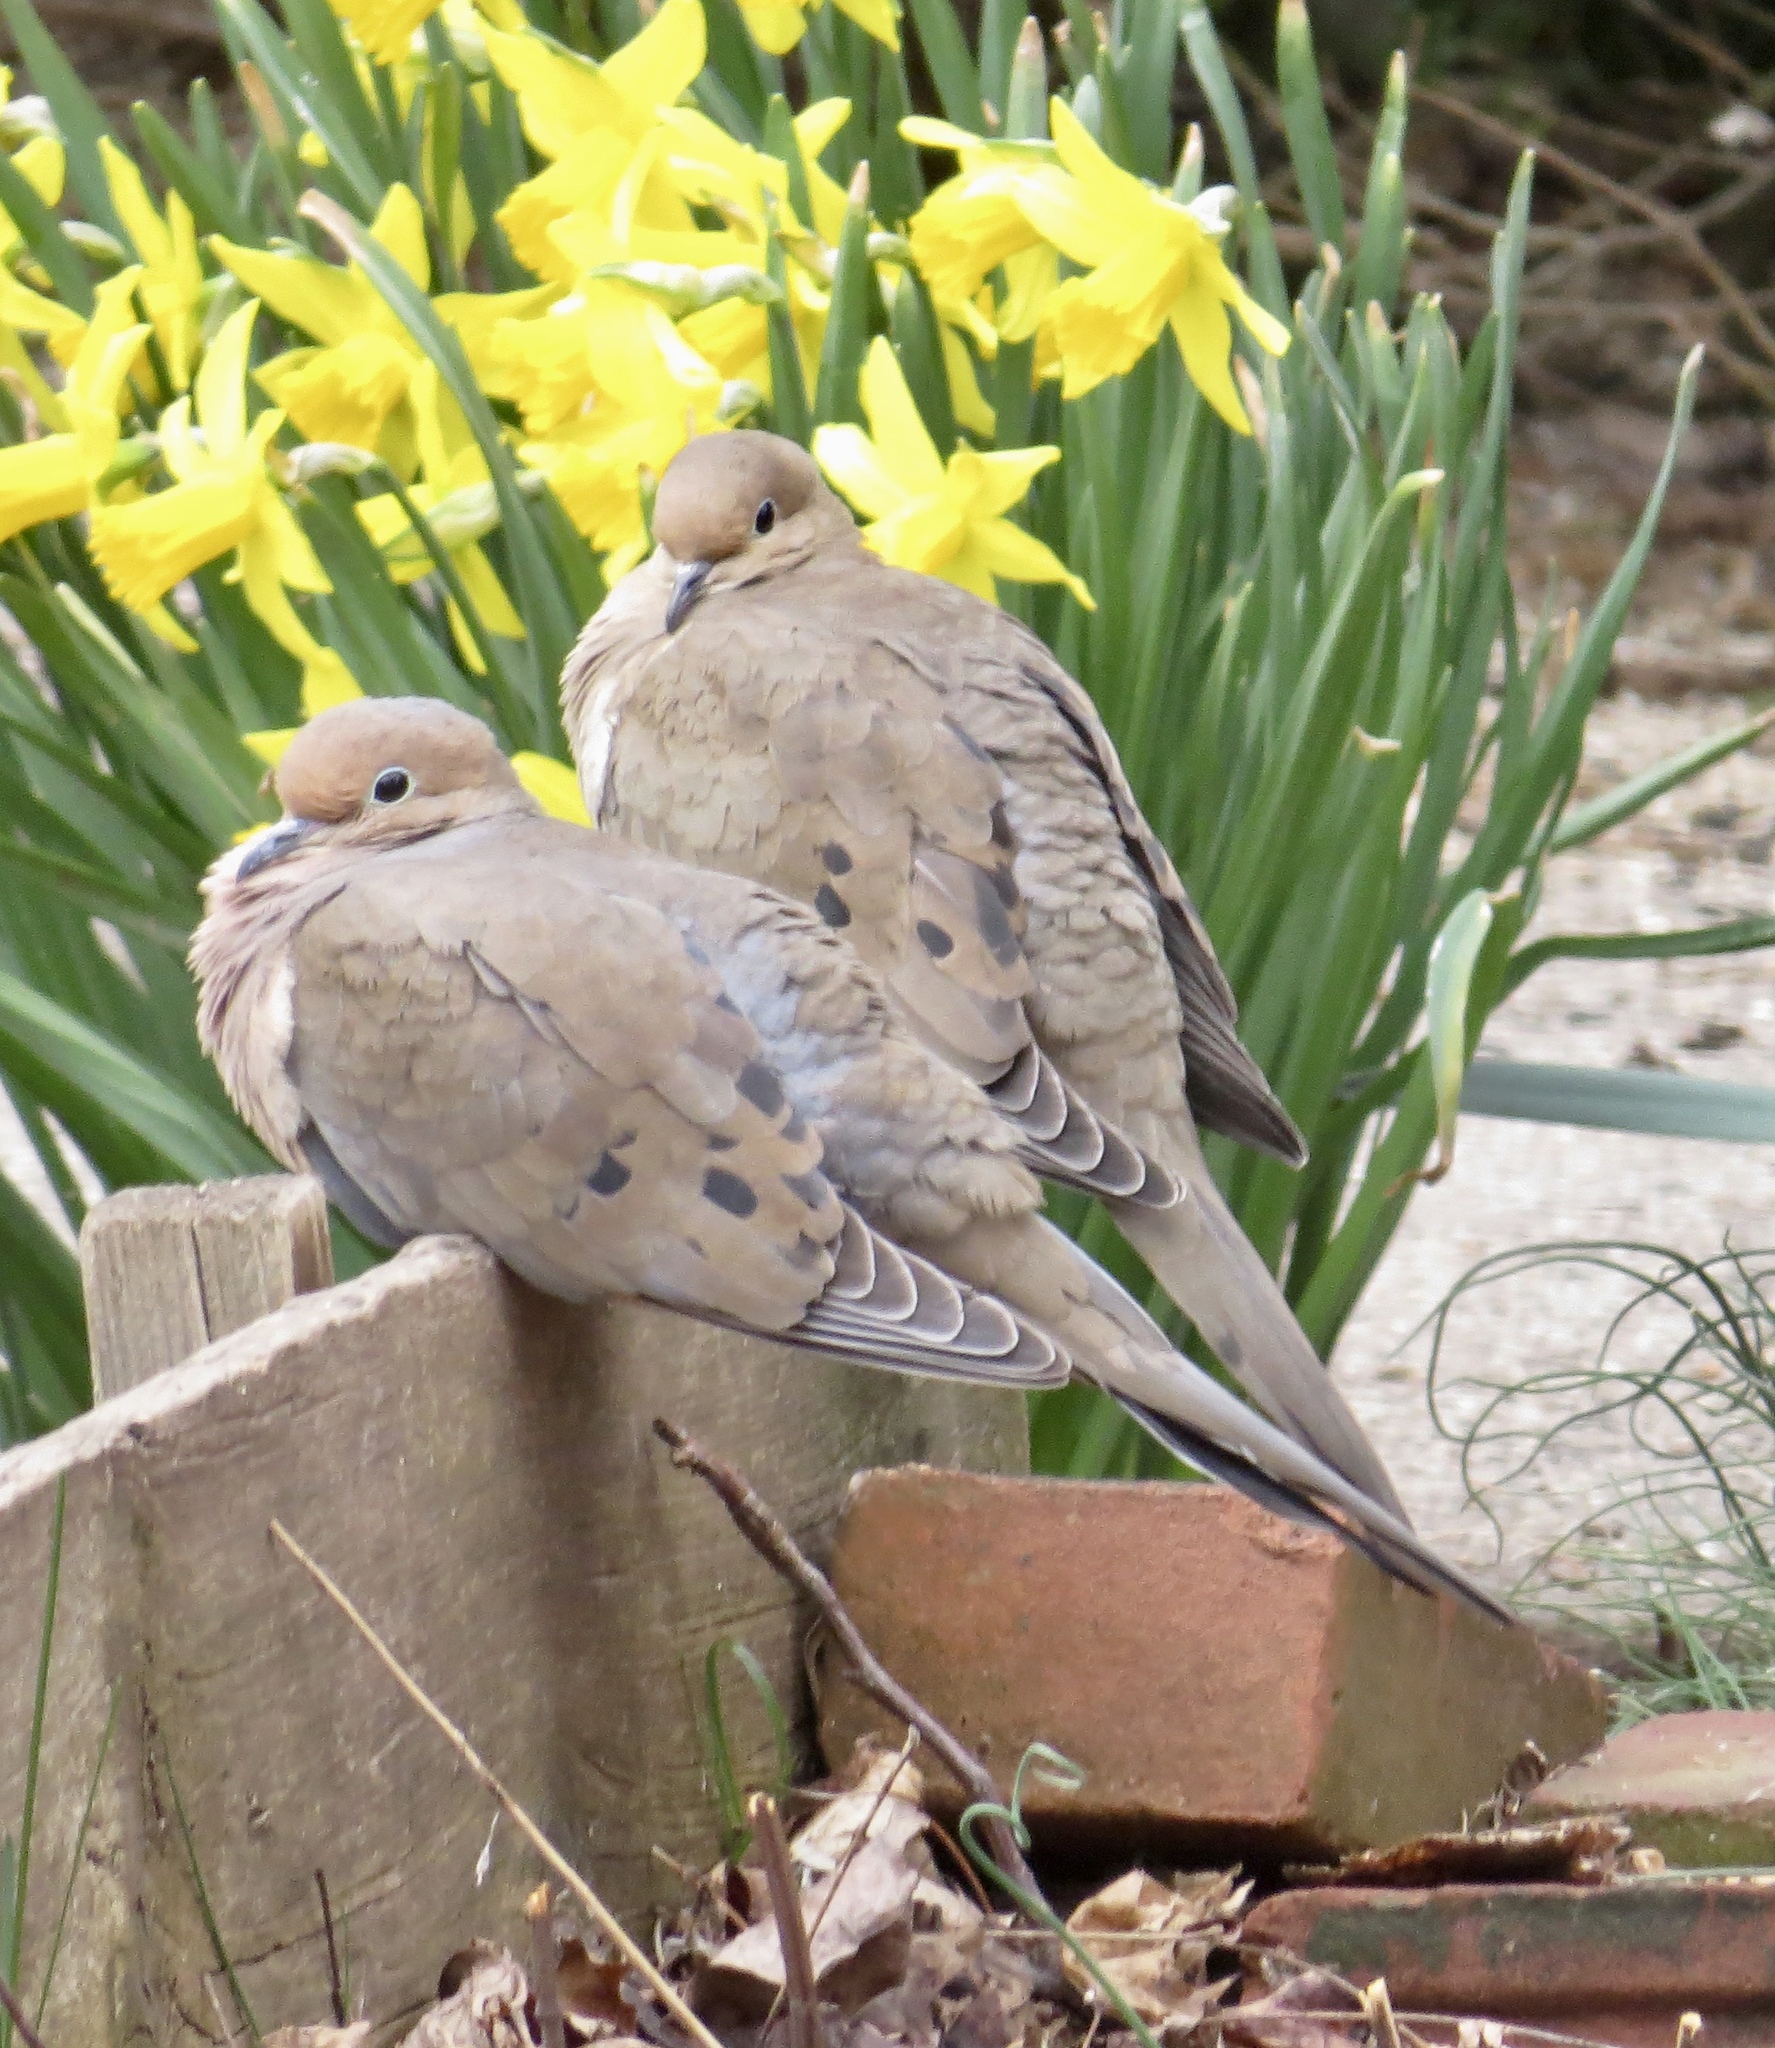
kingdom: Animalia
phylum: Chordata
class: Aves
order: Columbiformes
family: Columbidae
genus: Zenaida
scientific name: Zenaida macroura
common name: Mourning dove
